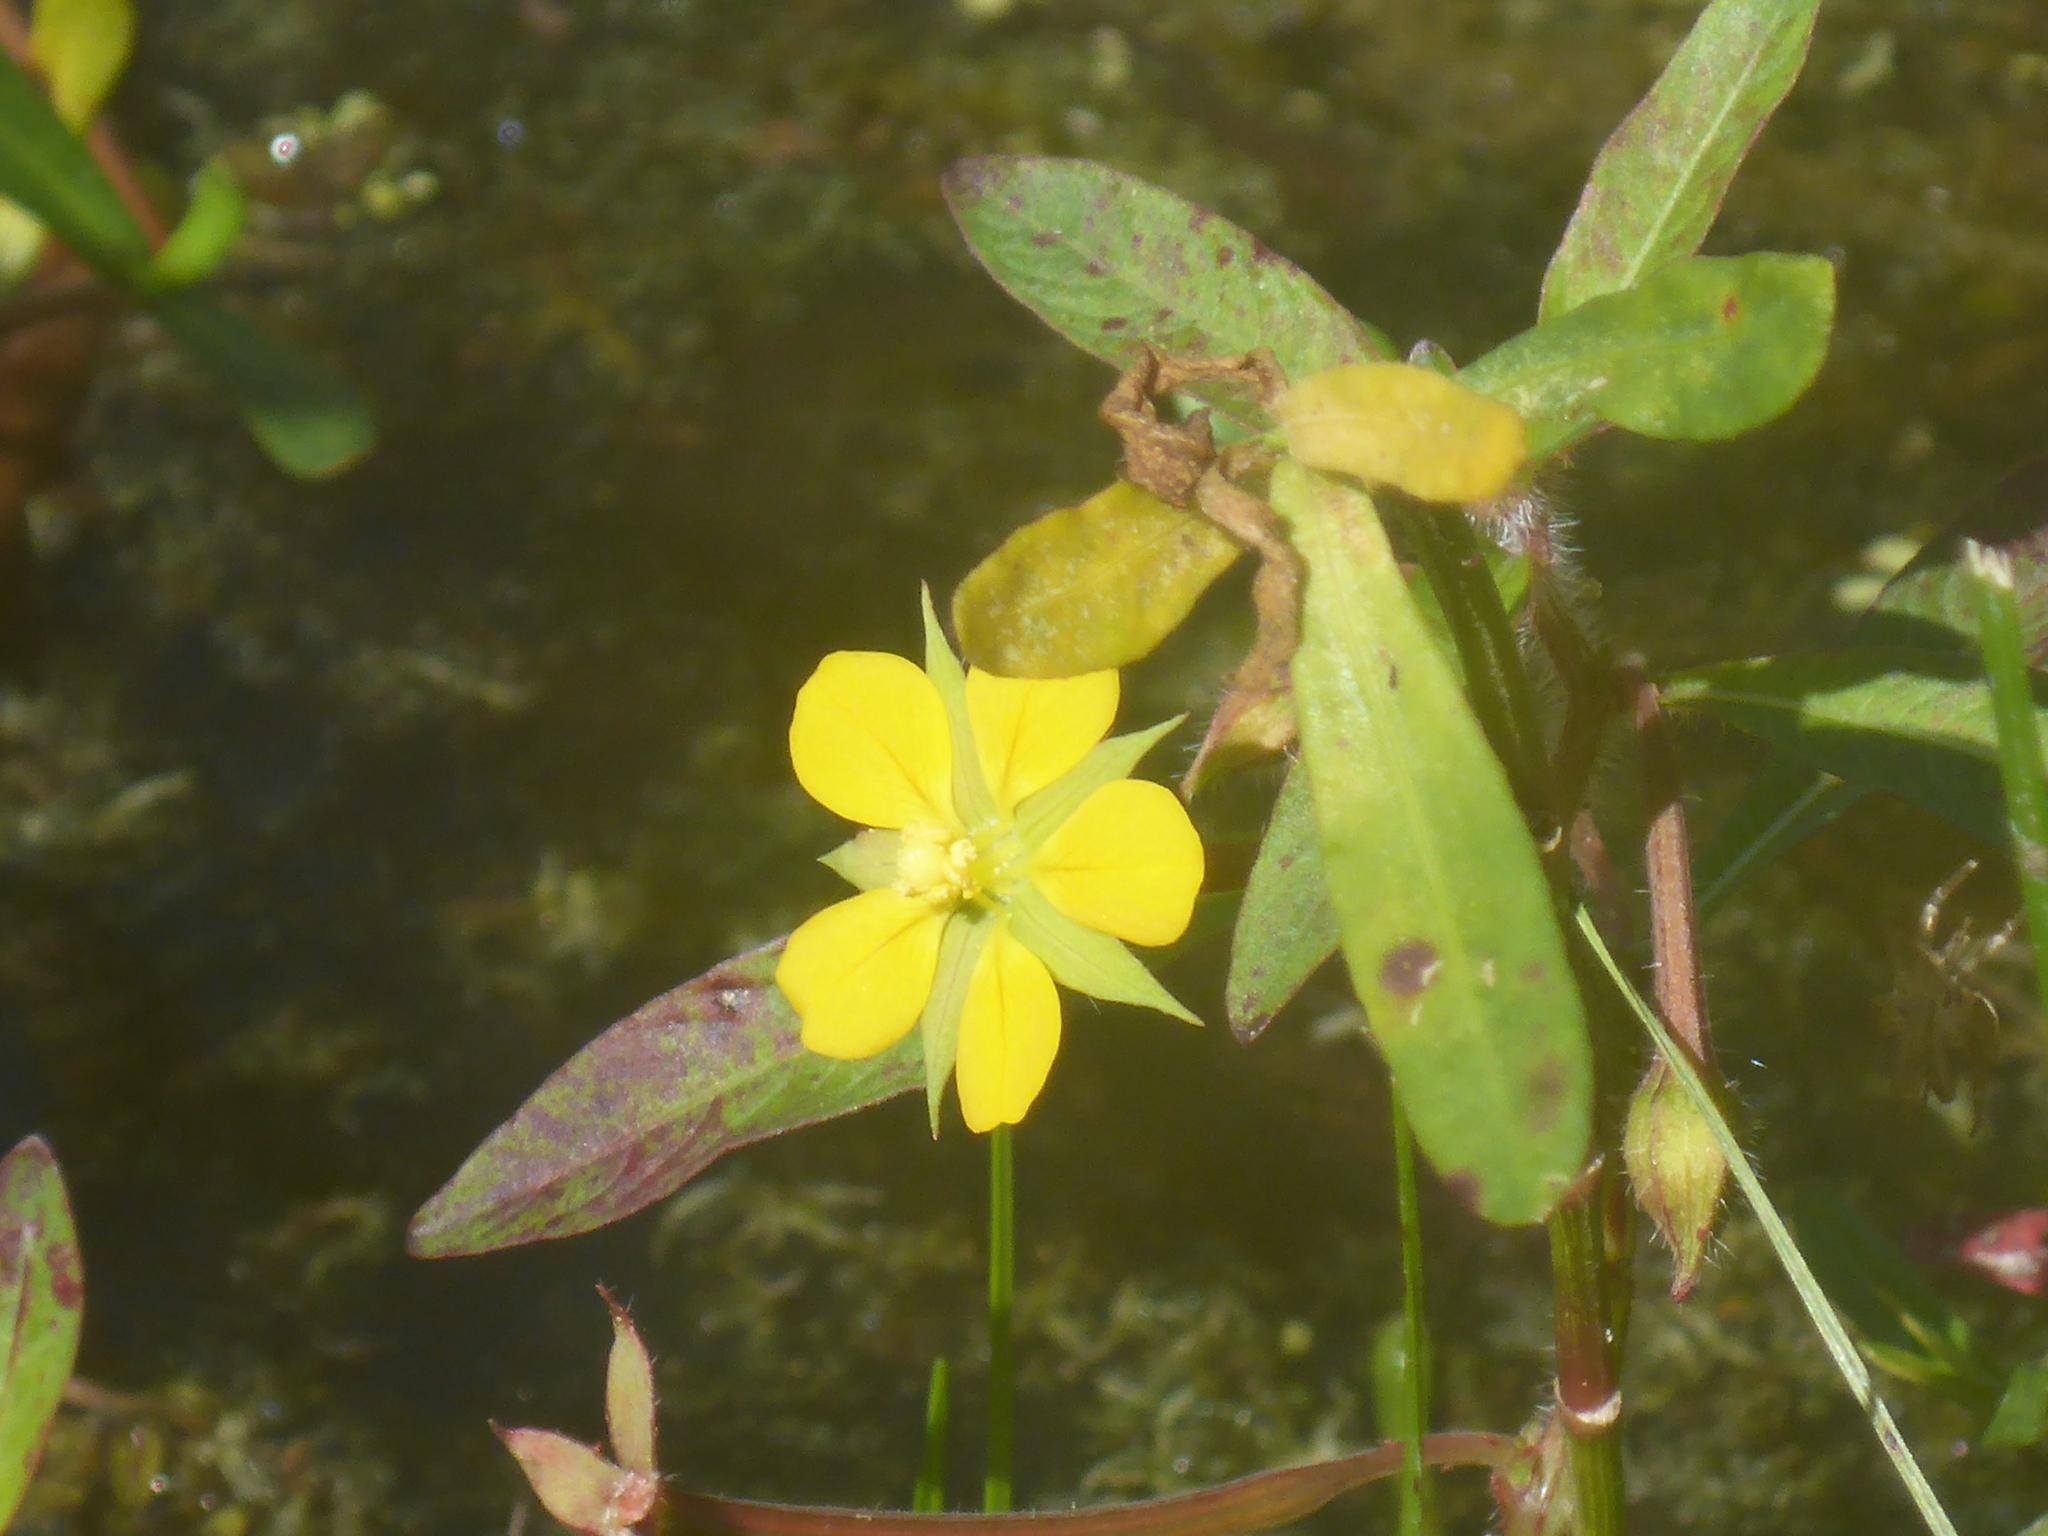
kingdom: Plantae
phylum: Tracheophyta
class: Magnoliopsida
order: Myrtales
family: Onagraceae
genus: Ludwigia
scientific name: Ludwigia leptocarpa
